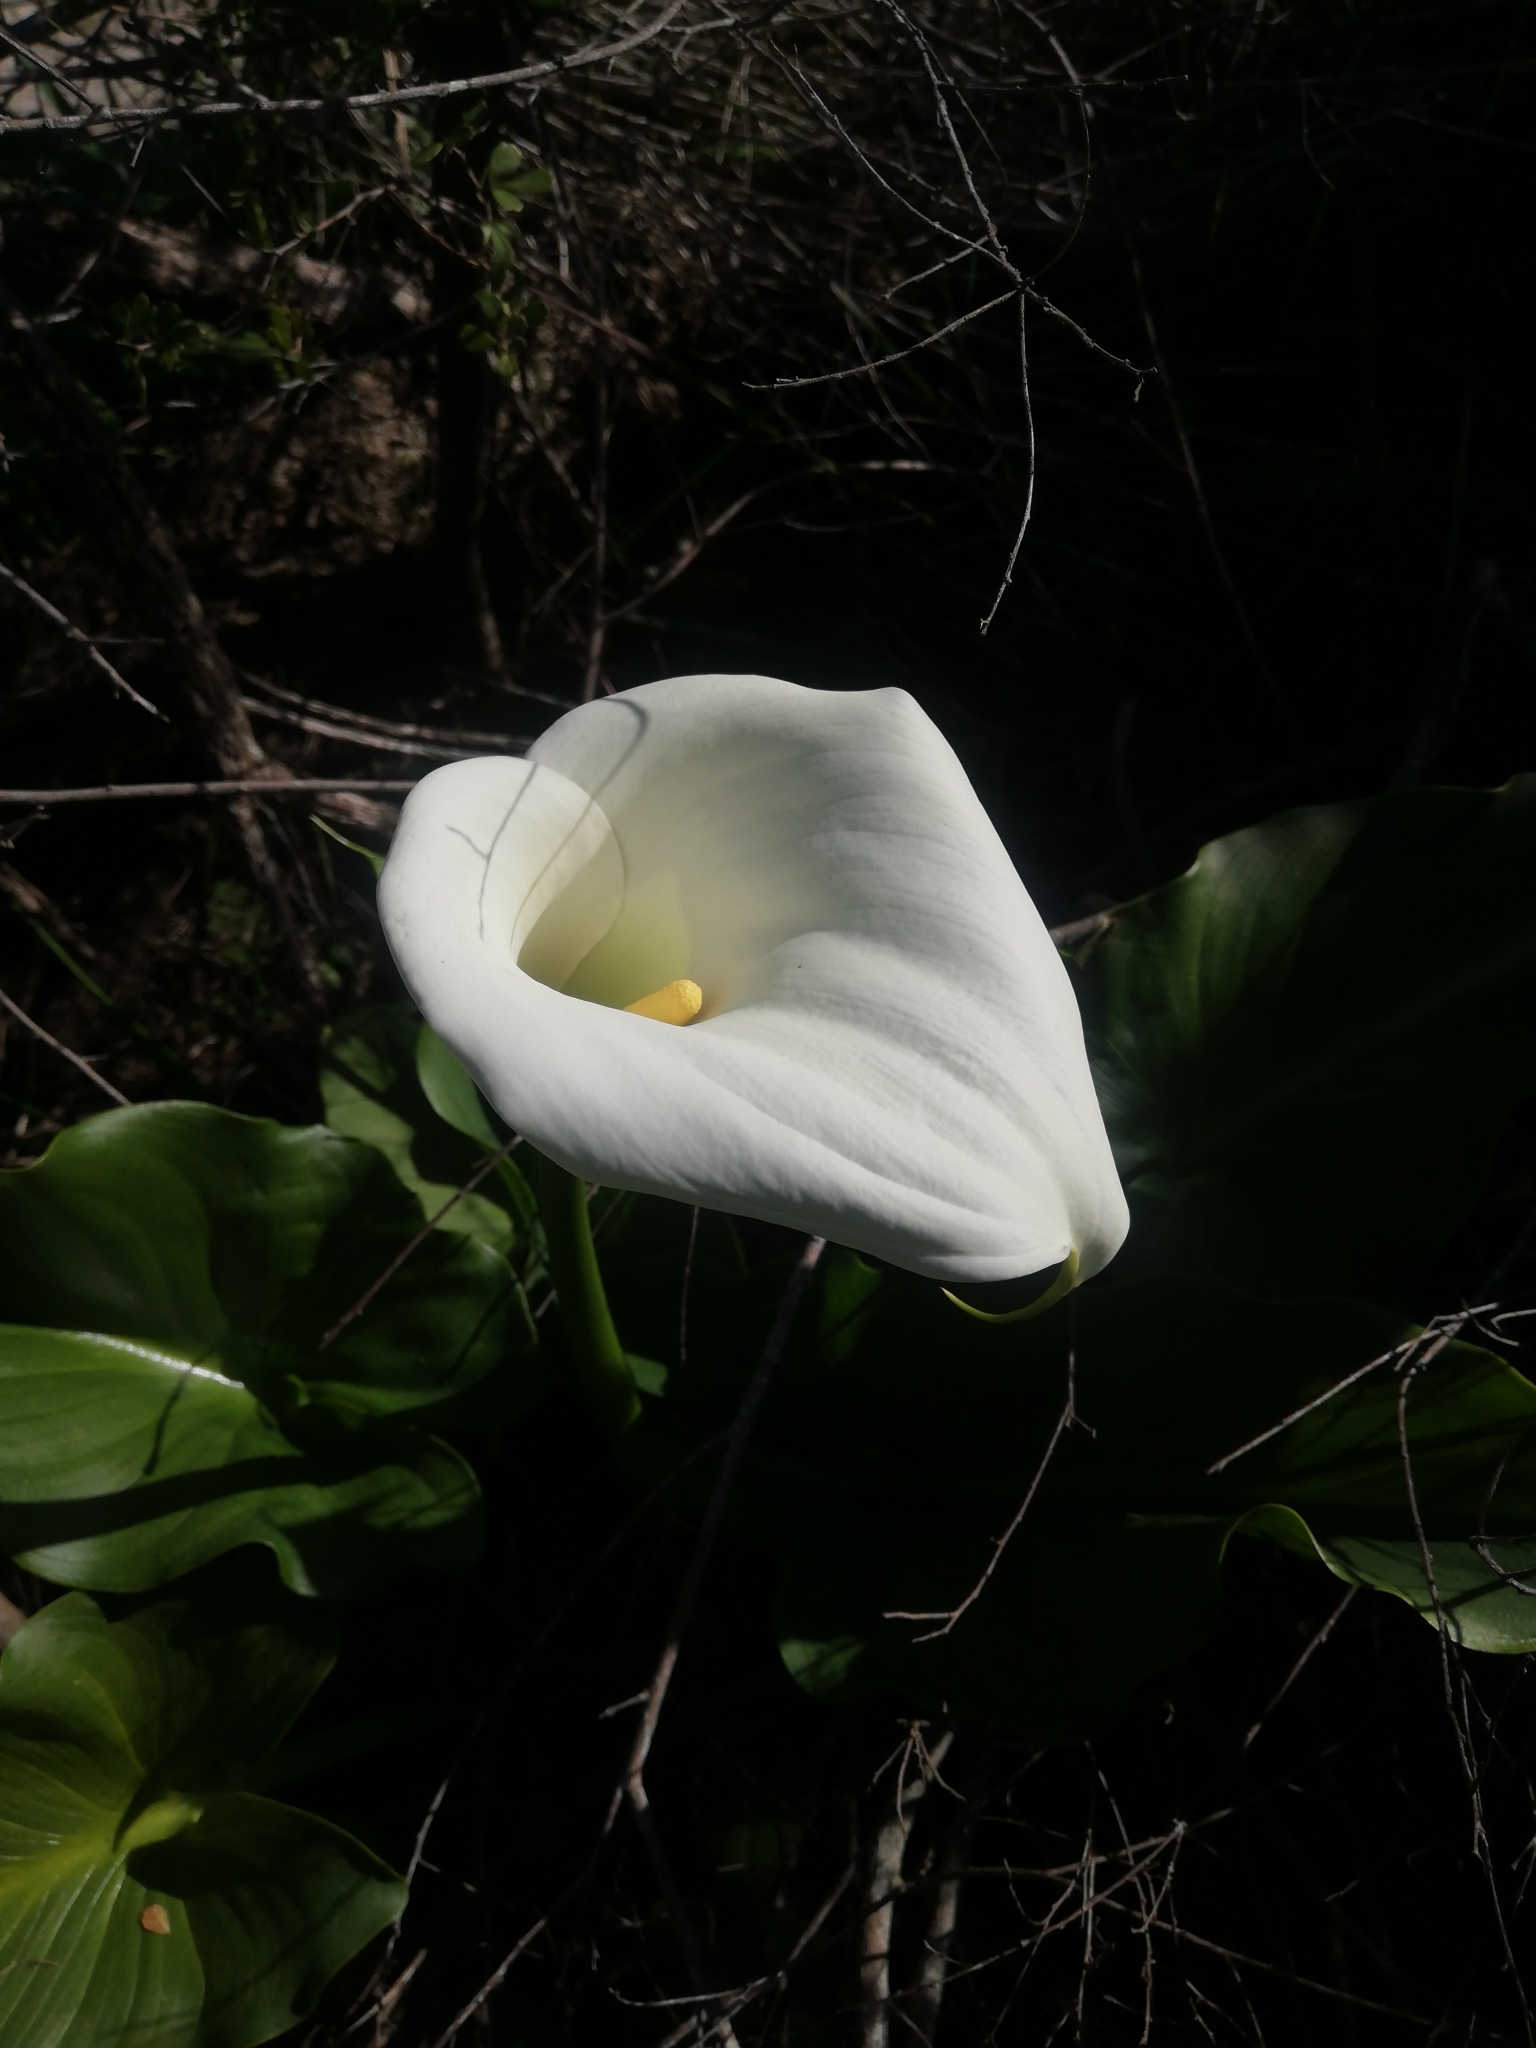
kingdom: Plantae
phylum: Tracheophyta
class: Liliopsida
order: Alismatales
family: Araceae
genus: Zantedeschia
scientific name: Zantedeschia aethiopica
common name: Altar-lily
